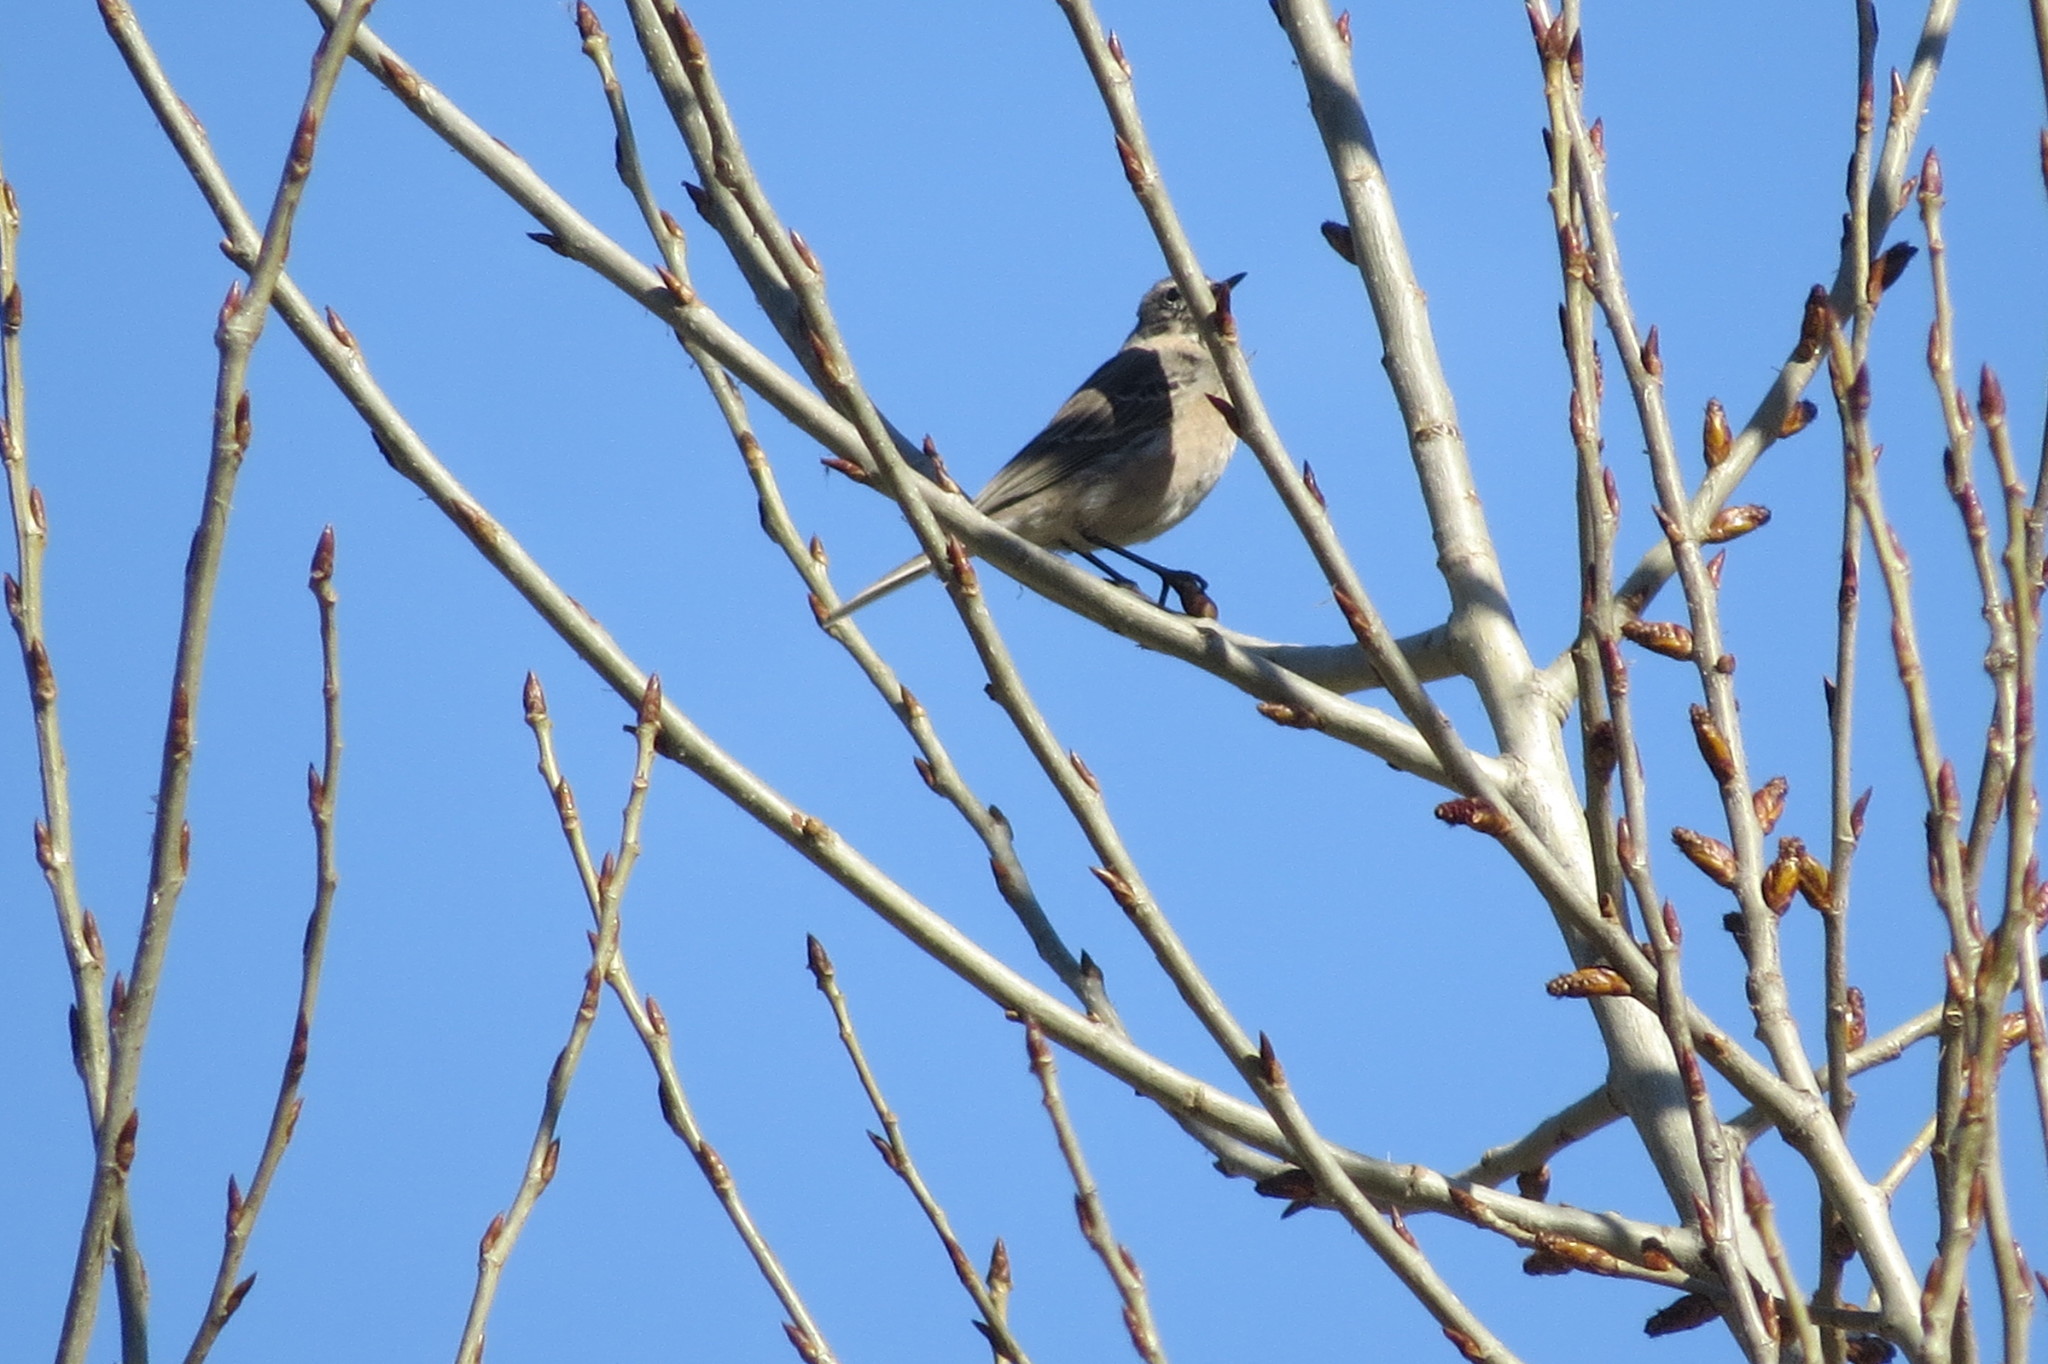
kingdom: Animalia
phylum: Chordata
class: Aves
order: Passeriformes
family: Motacillidae
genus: Anthus
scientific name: Anthus spinoletta
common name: Water pipit
